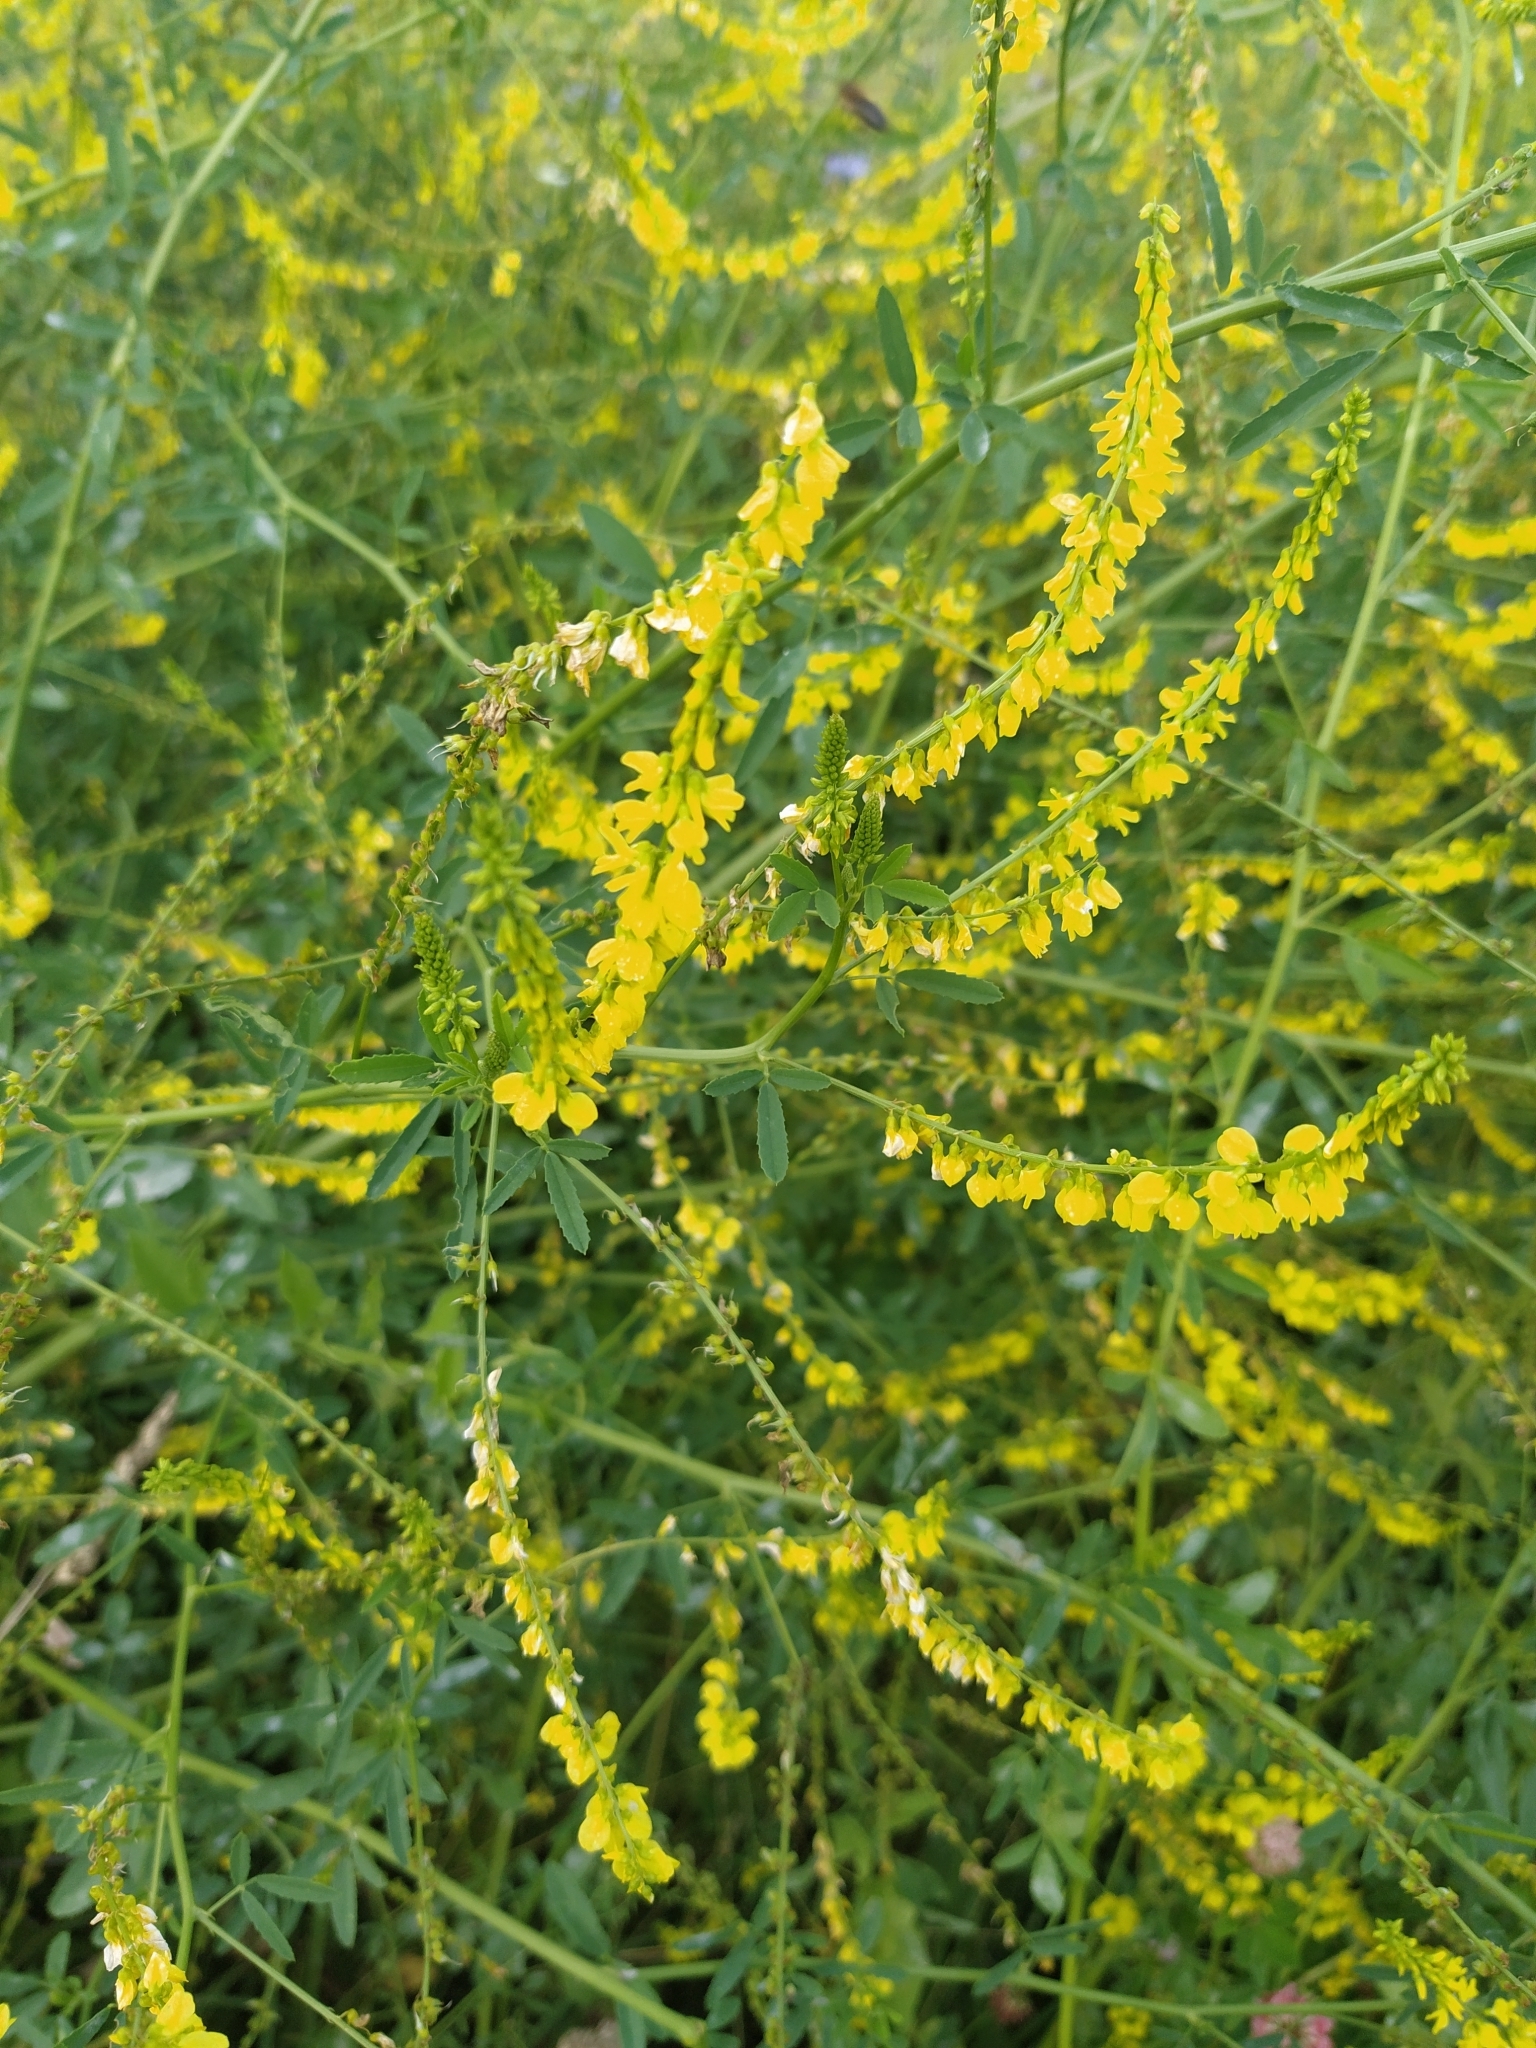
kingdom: Plantae
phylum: Tracheophyta
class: Magnoliopsida
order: Fabales
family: Fabaceae
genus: Melilotus
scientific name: Melilotus officinalis
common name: Sweetclover
